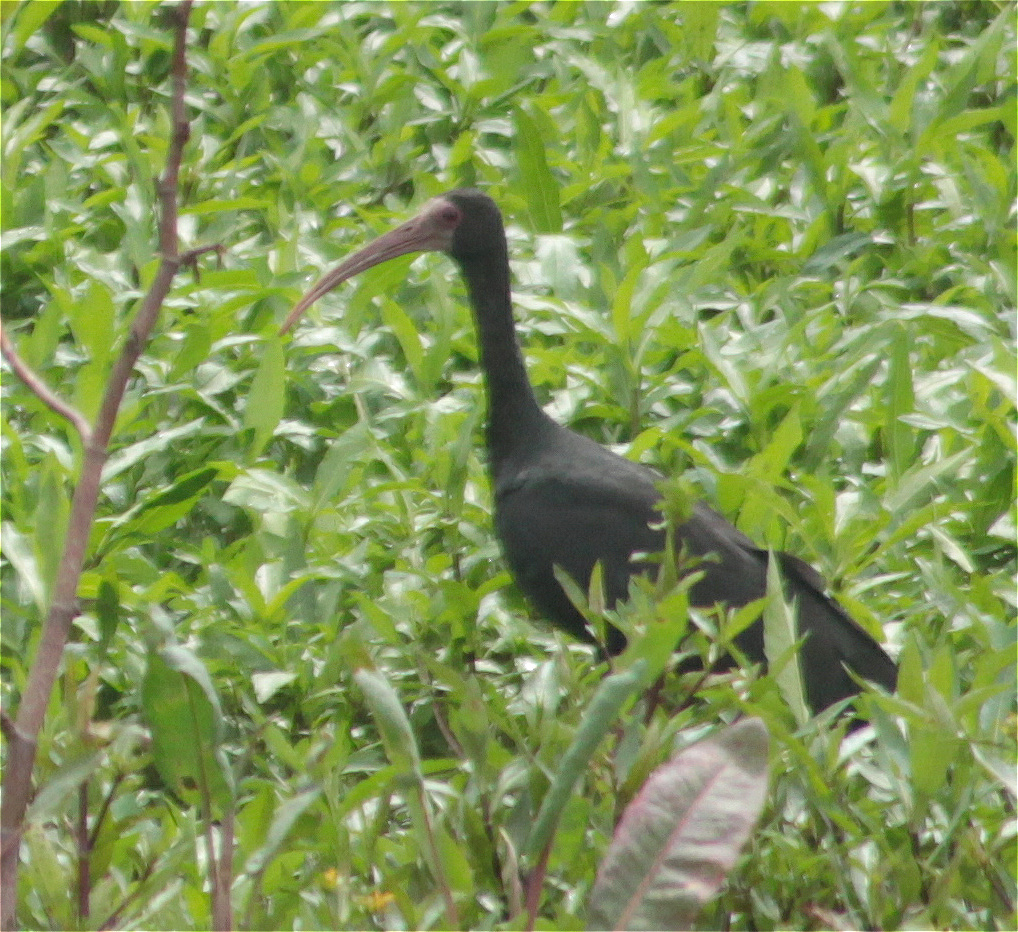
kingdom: Animalia
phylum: Chordata
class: Aves
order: Pelecaniformes
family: Threskiornithidae
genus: Phimosus
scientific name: Phimosus infuscatus
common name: Bare-faced ibis
